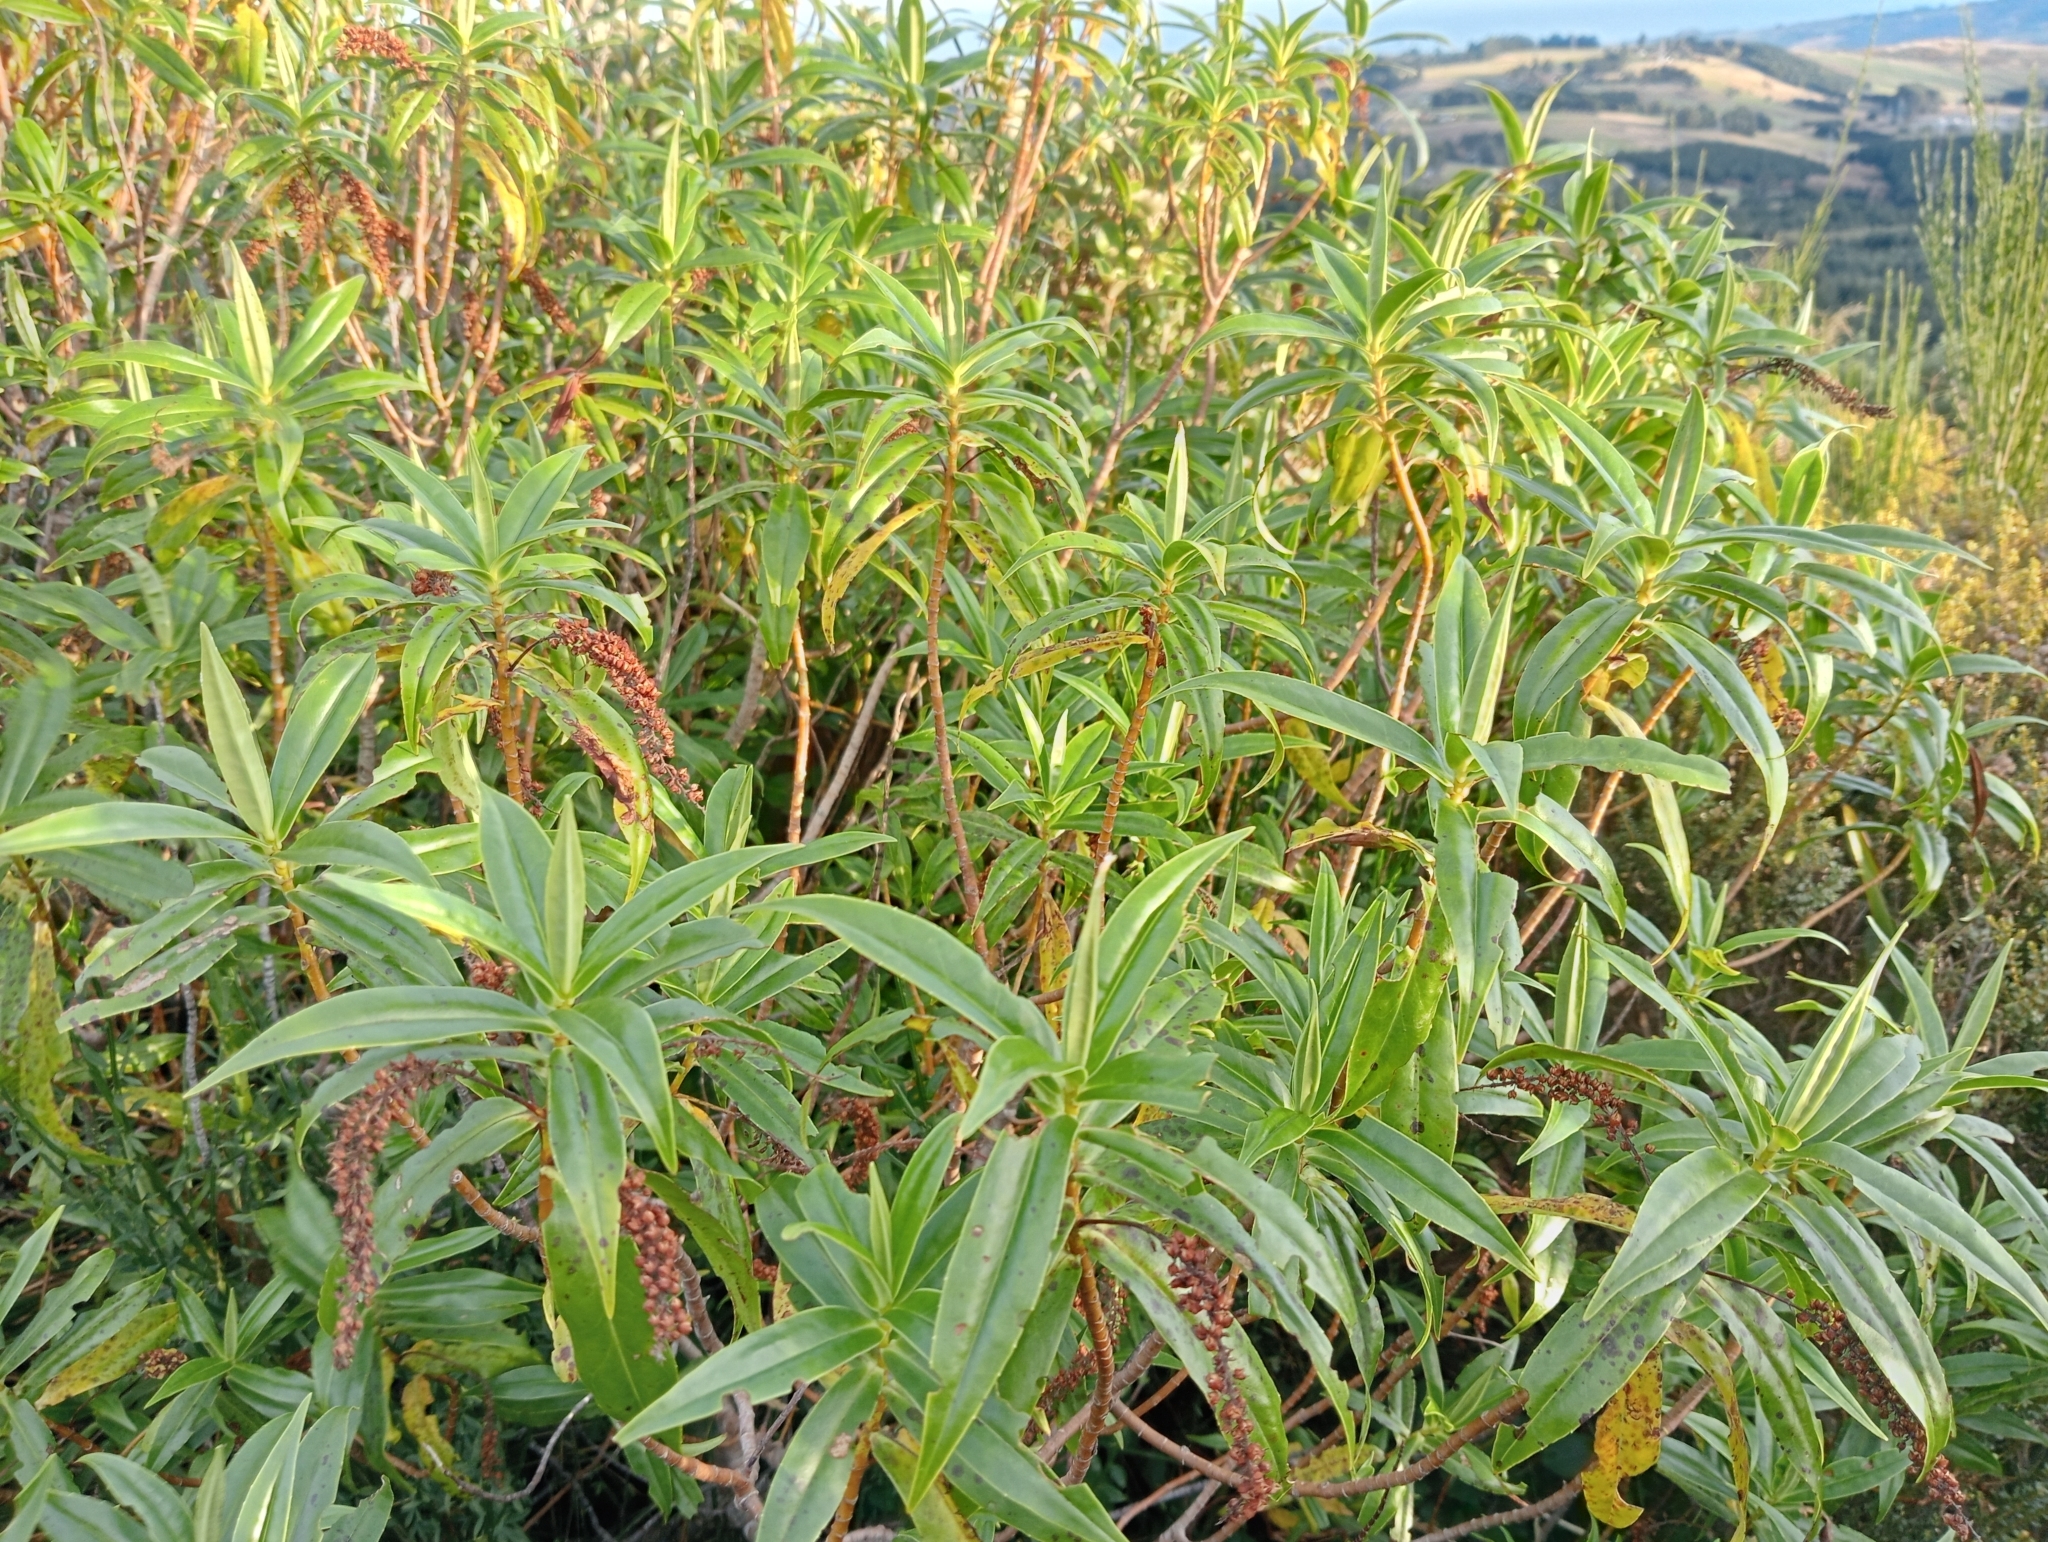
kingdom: Plantae
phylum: Tracheophyta
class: Magnoliopsida
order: Lamiales
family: Plantaginaceae
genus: Veronica
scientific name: Veronica salicifolia
